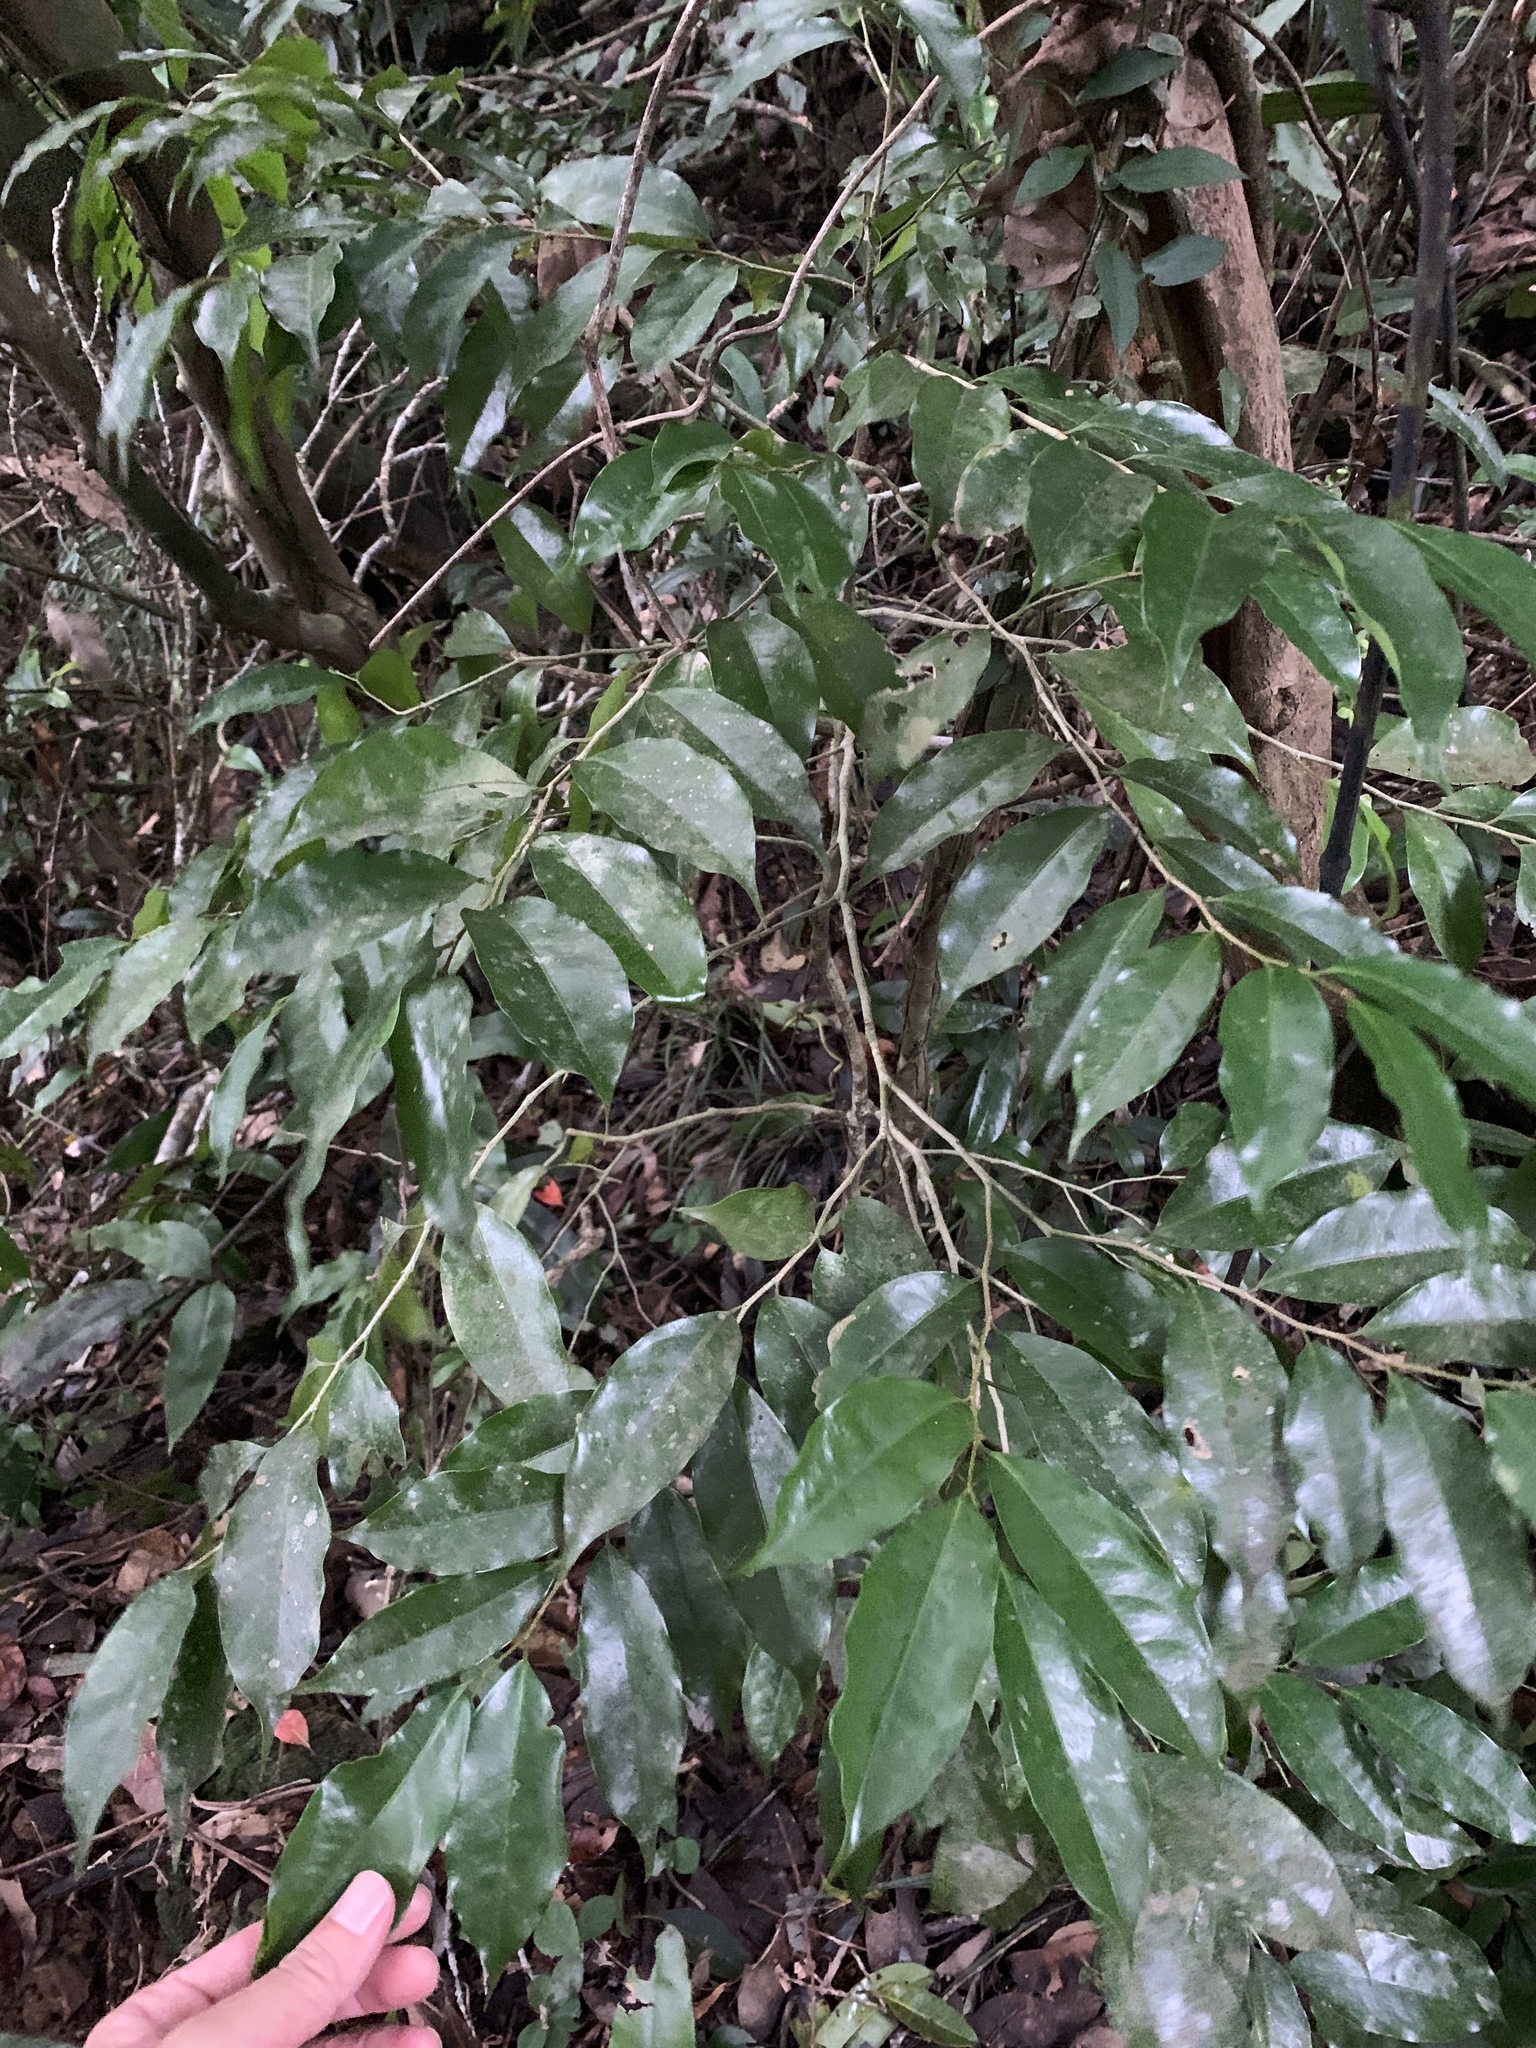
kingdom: Plantae
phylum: Tracheophyta
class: Magnoliopsida
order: Malpighiales
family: Putranjivaceae
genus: Drypetes
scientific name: Drypetes indica
